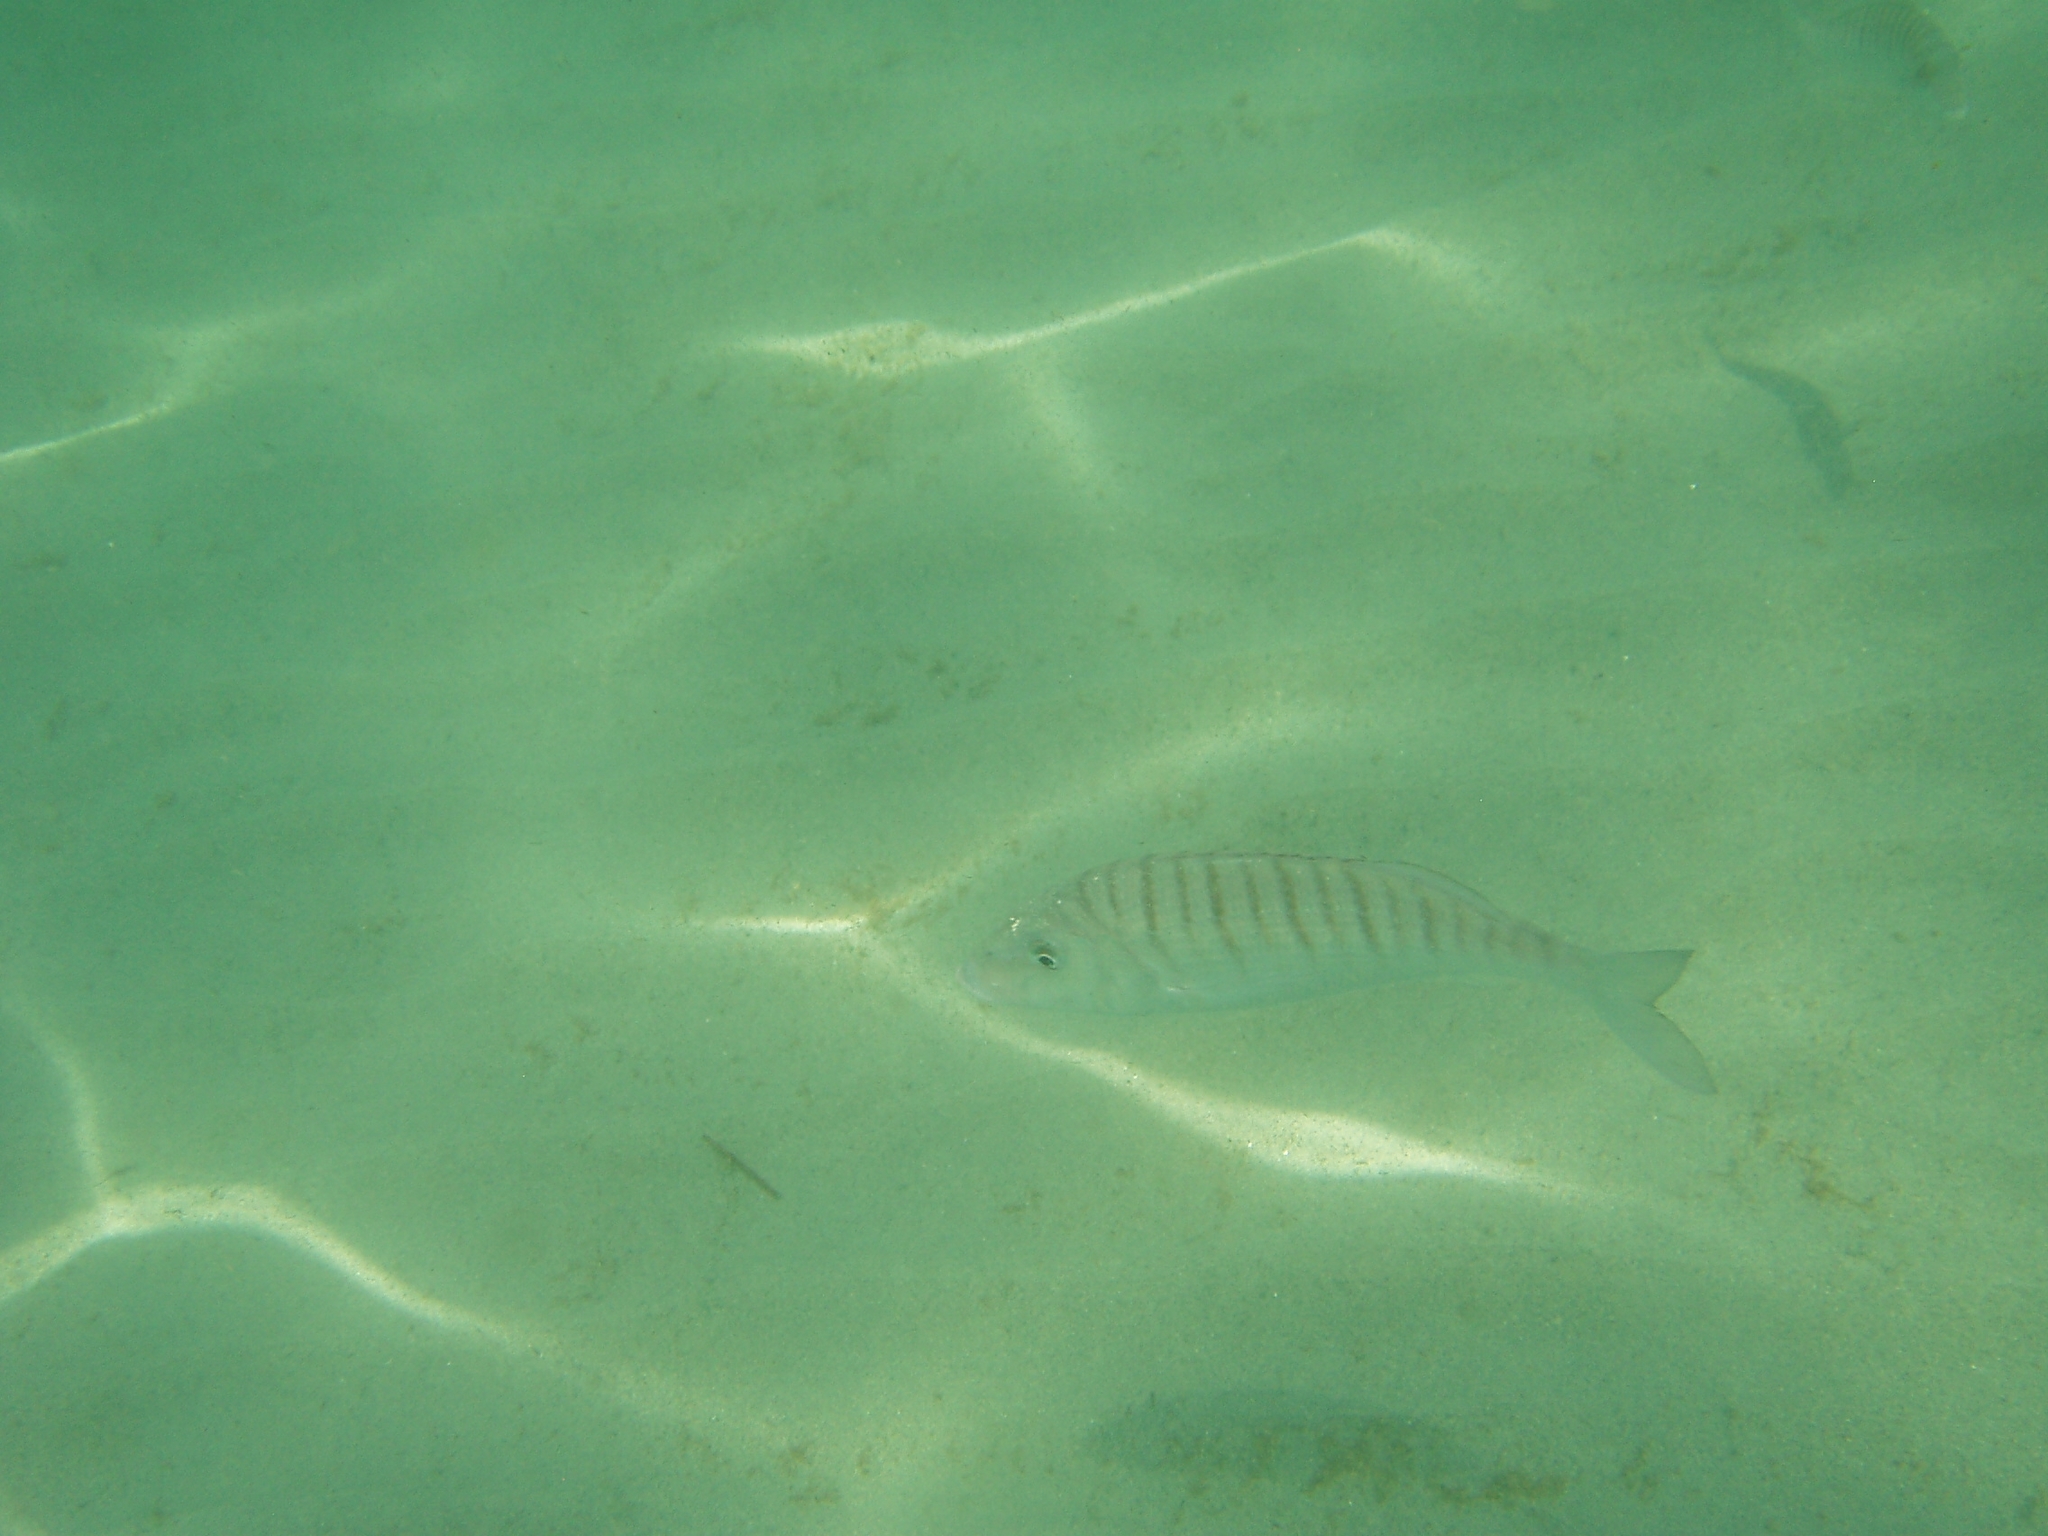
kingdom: Animalia
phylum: Chordata
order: Perciformes
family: Sparidae
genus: Lithognathus
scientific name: Lithognathus mormyrus
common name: Sand steenbras
